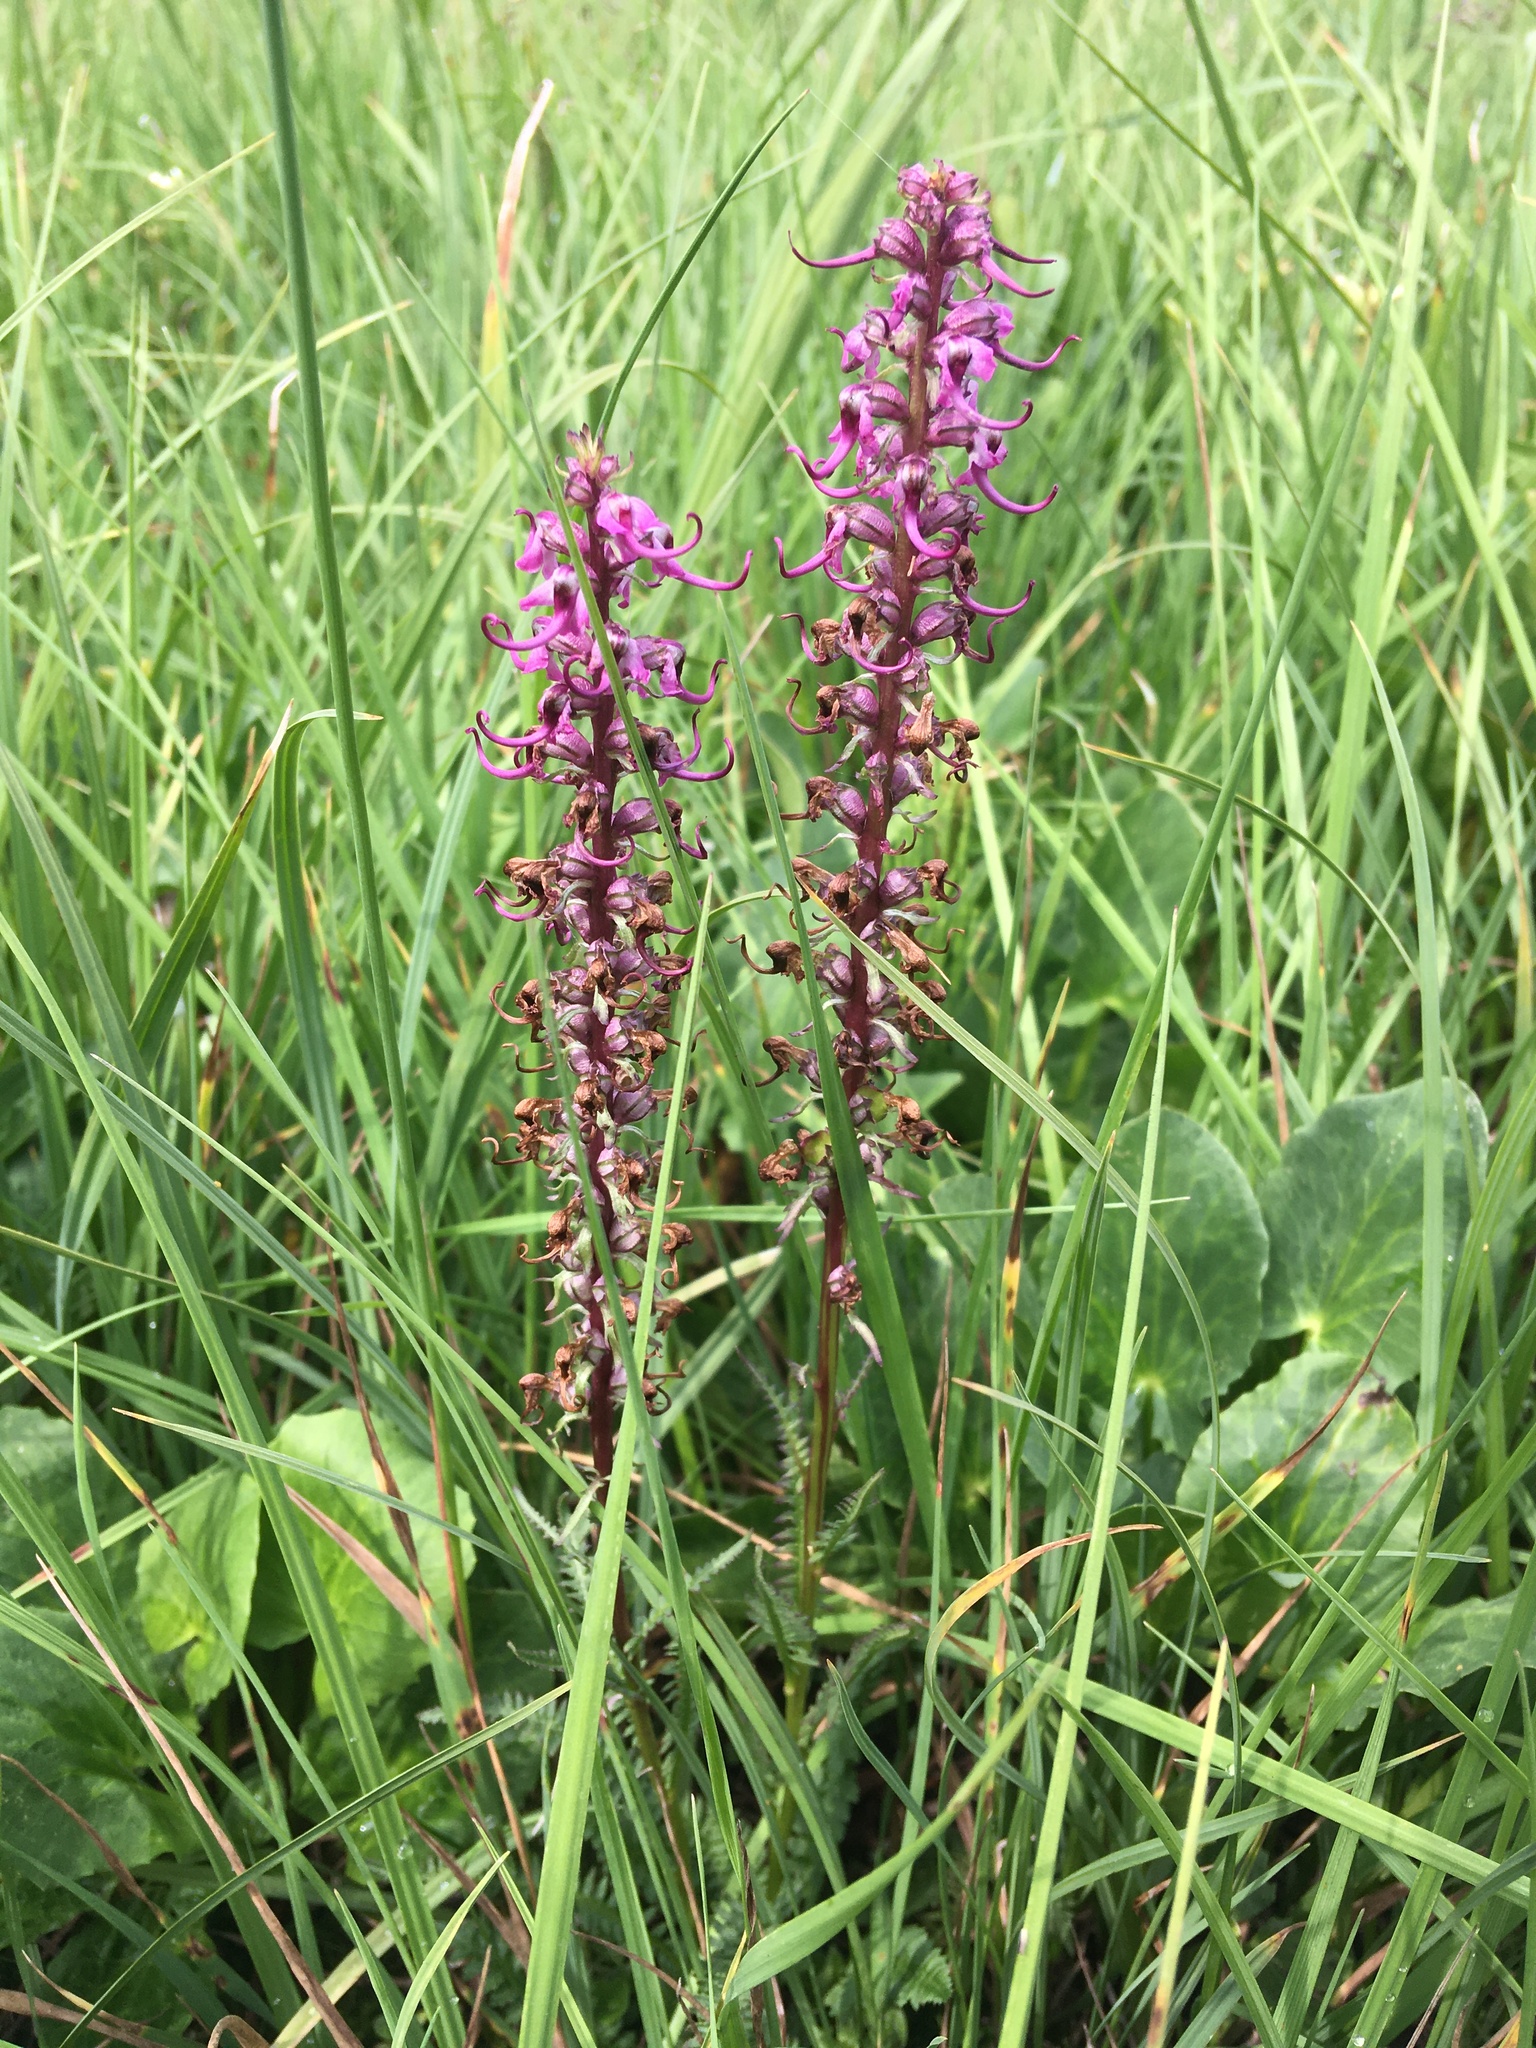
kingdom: Plantae
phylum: Tracheophyta
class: Magnoliopsida
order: Lamiales
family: Orobanchaceae
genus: Pedicularis
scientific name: Pedicularis groenlandica
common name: Elephant's-head
